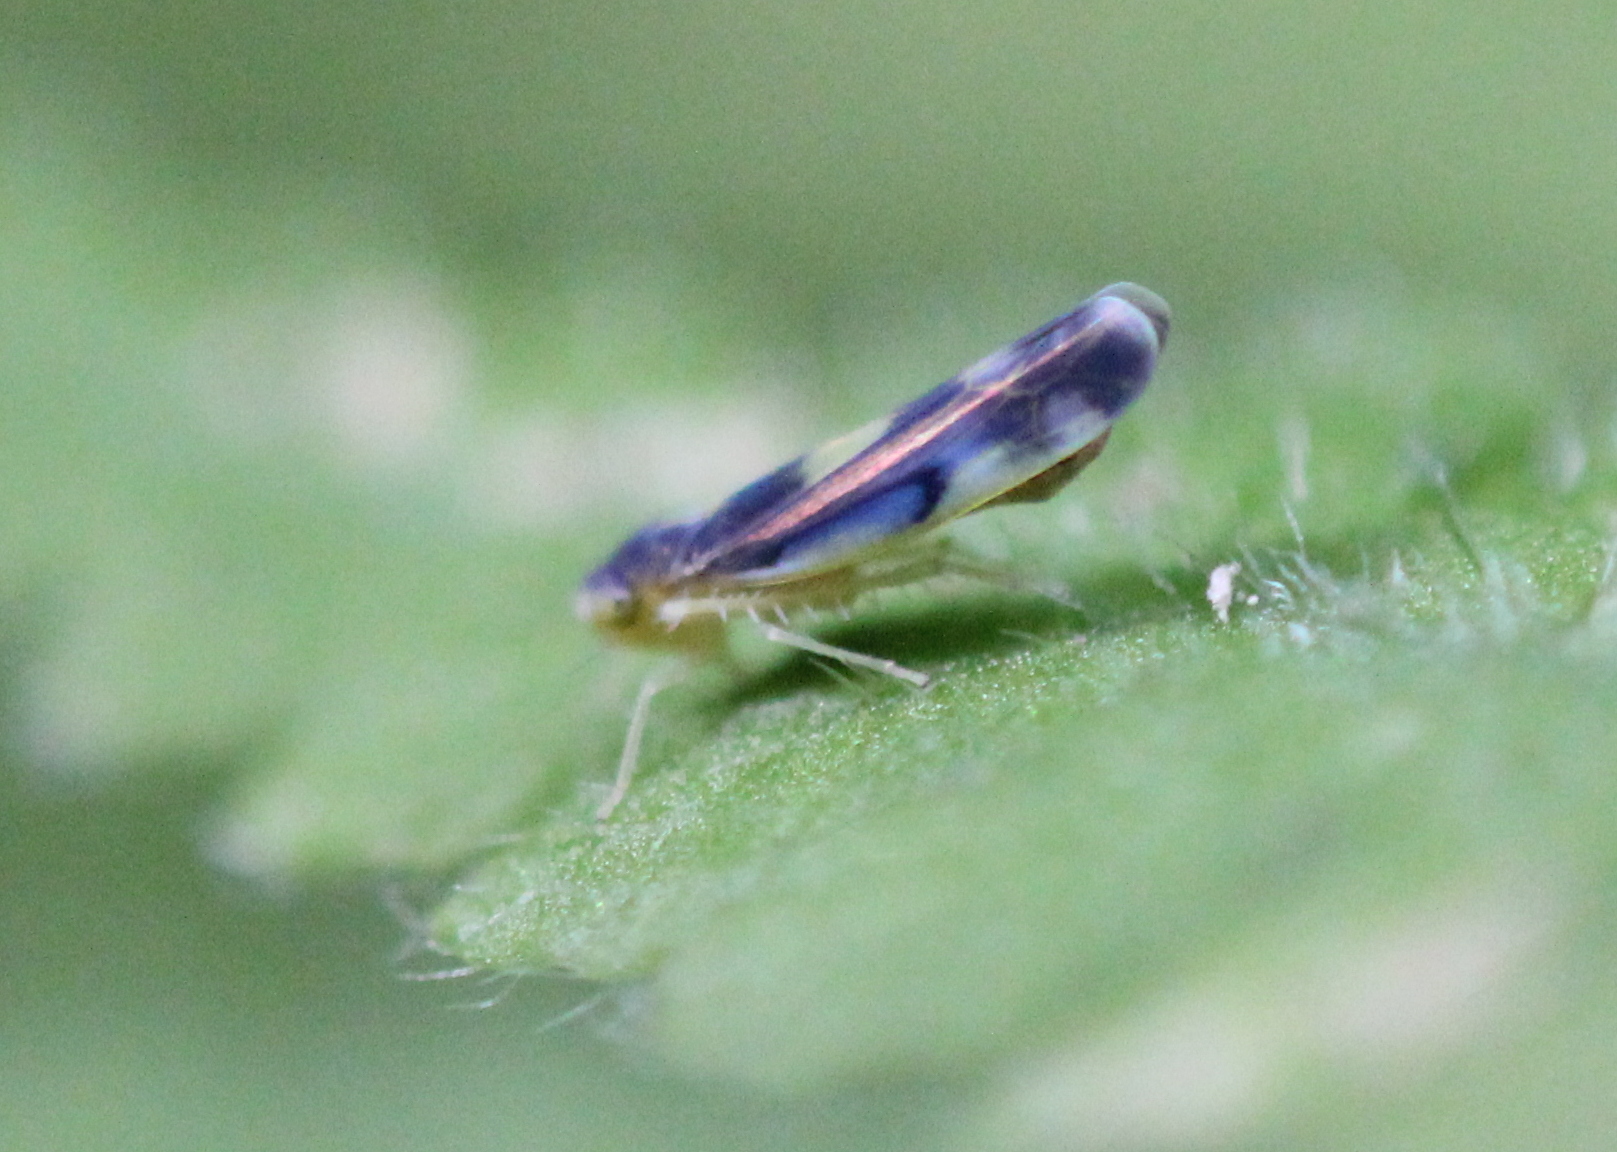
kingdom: Animalia
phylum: Arthropoda
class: Insecta
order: Hemiptera
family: Cicadellidae
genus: Eupteryx
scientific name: Eupteryx flavoscuta
